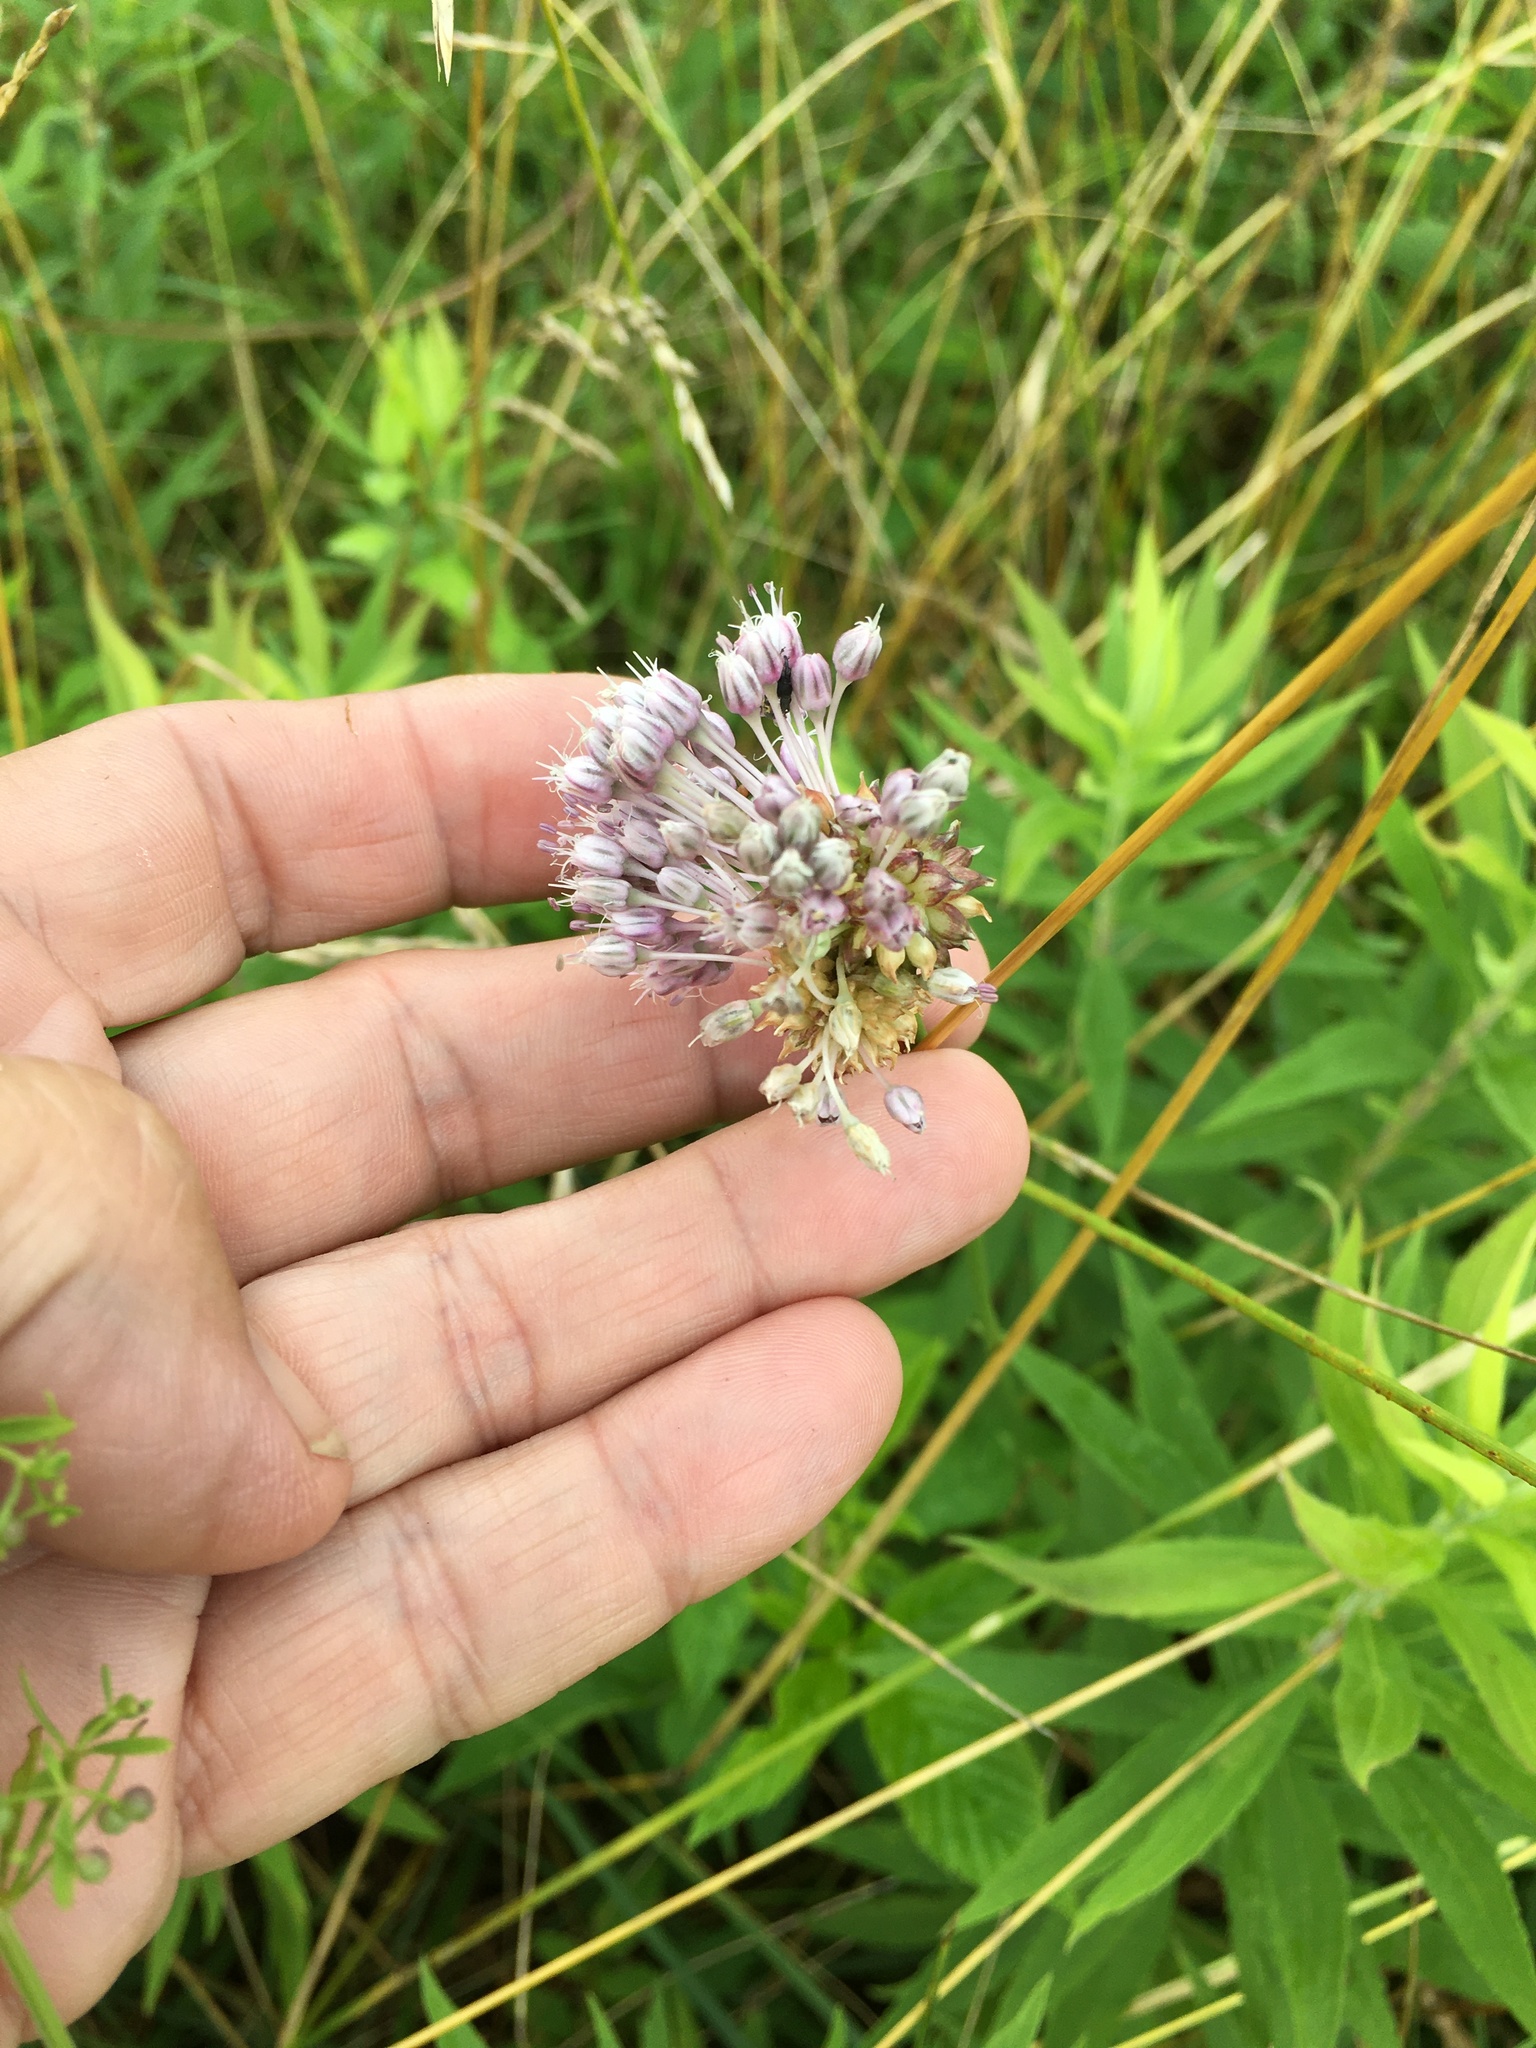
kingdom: Plantae
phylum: Tracheophyta
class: Liliopsida
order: Asparagales
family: Amaryllidaceae
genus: Allium
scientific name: Allium vineale
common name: Crow garlic
